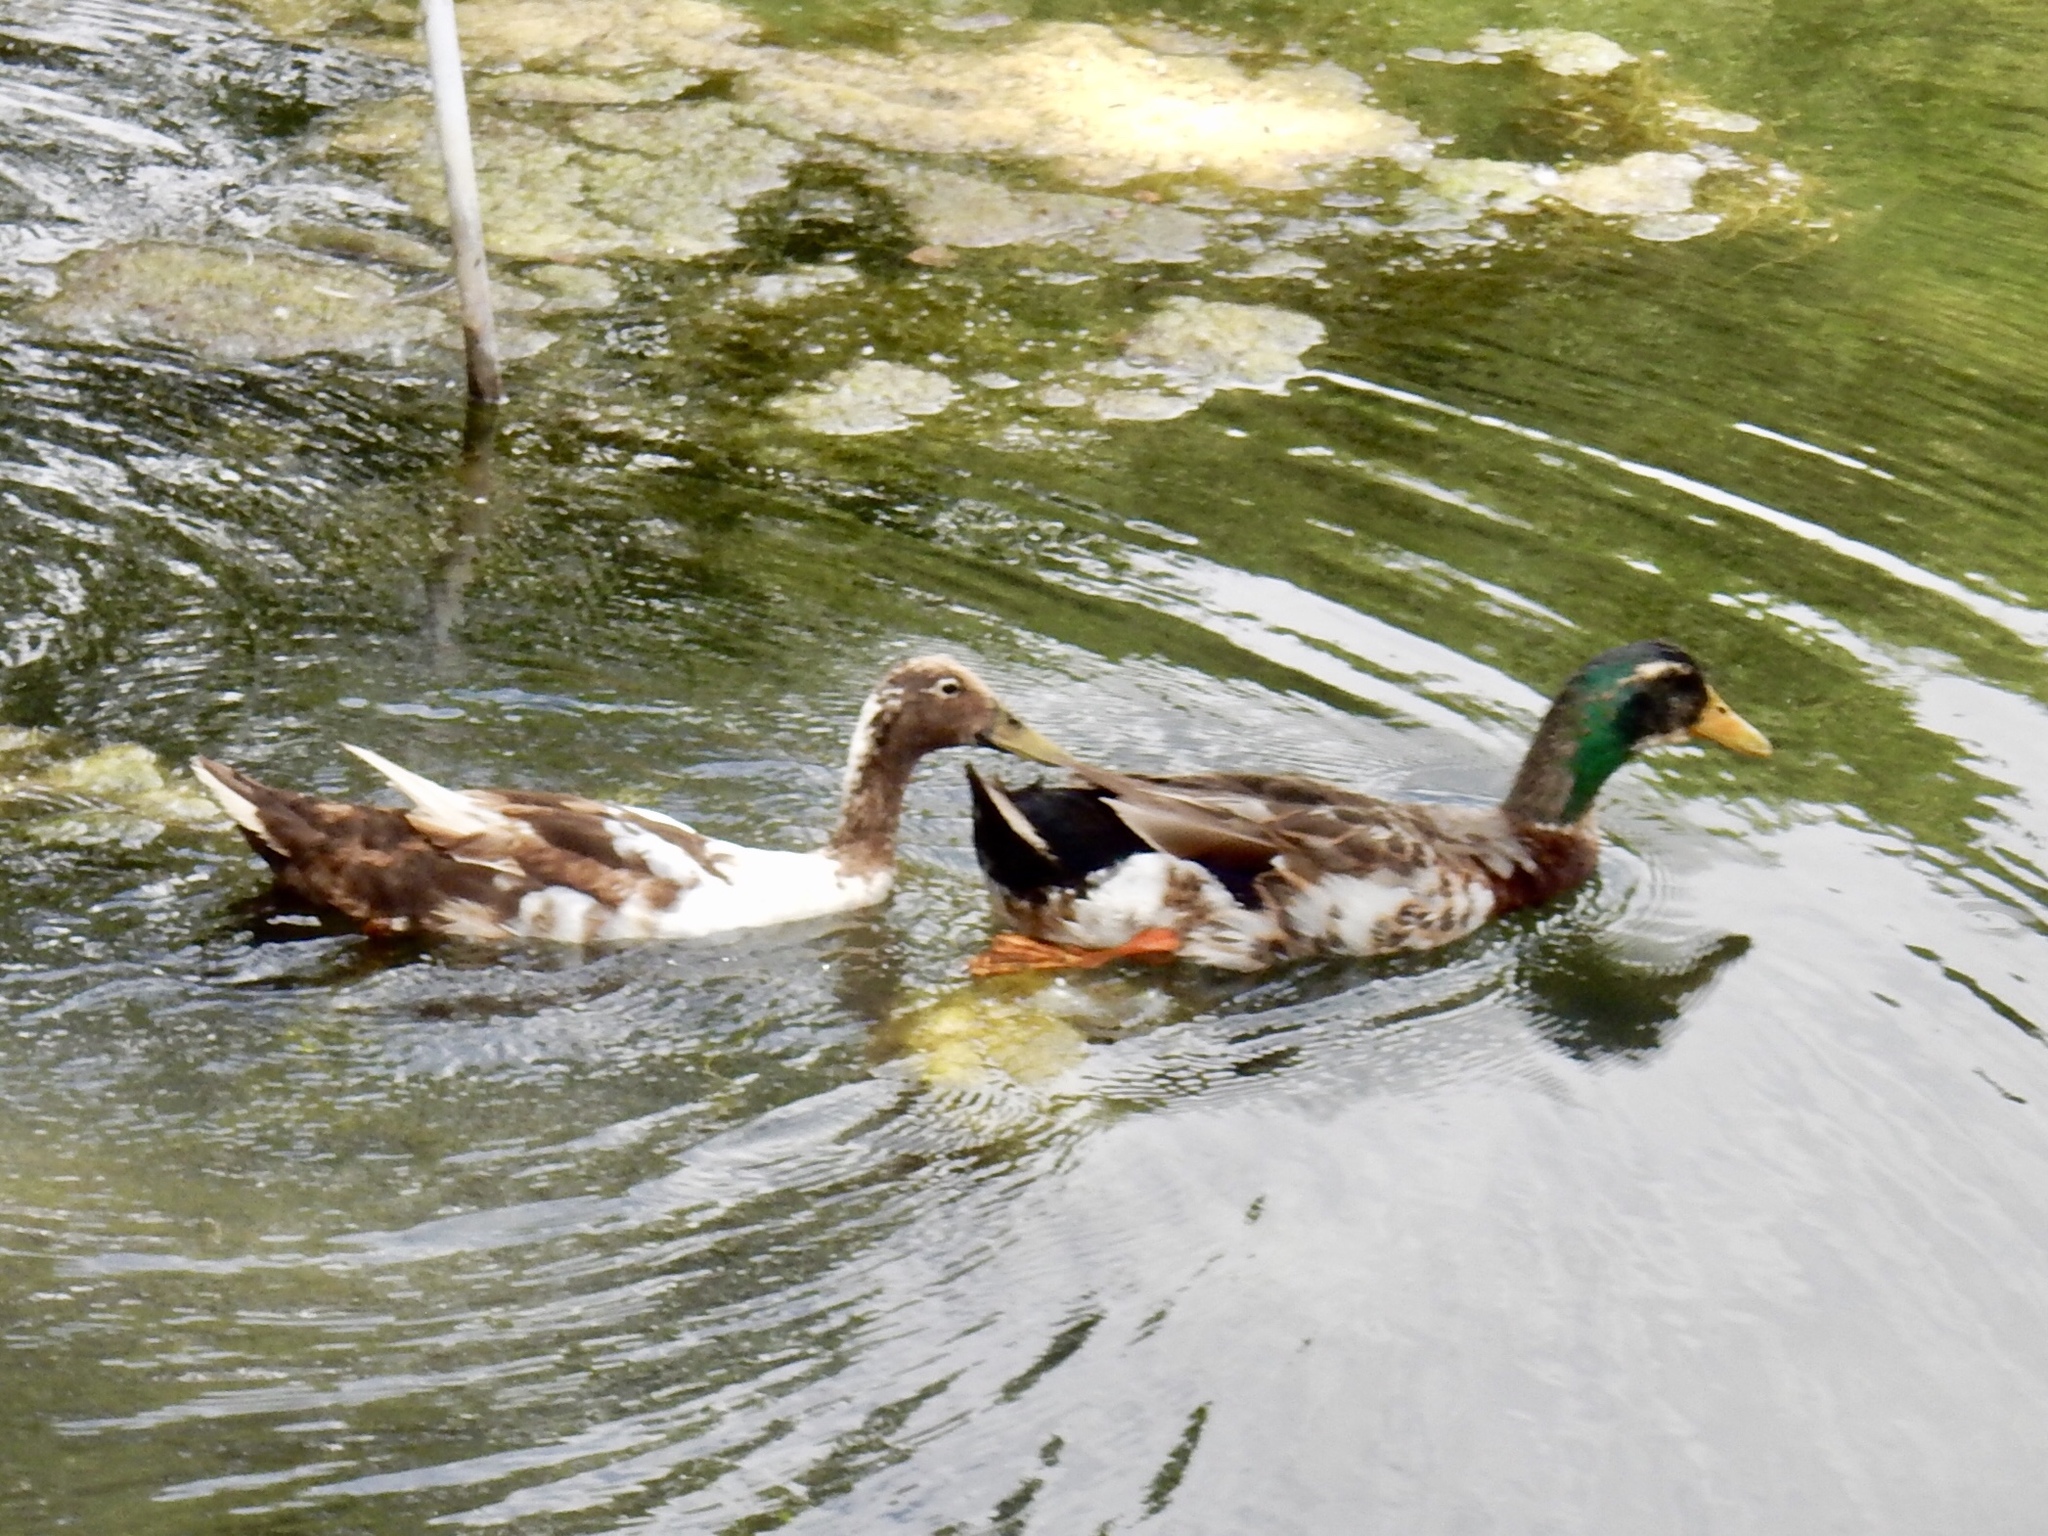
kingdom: Animalia
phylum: Chordata
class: Aves
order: Anseriformes
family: Anatidae
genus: Anas
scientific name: Anas platyrhynchos
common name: Mallard
